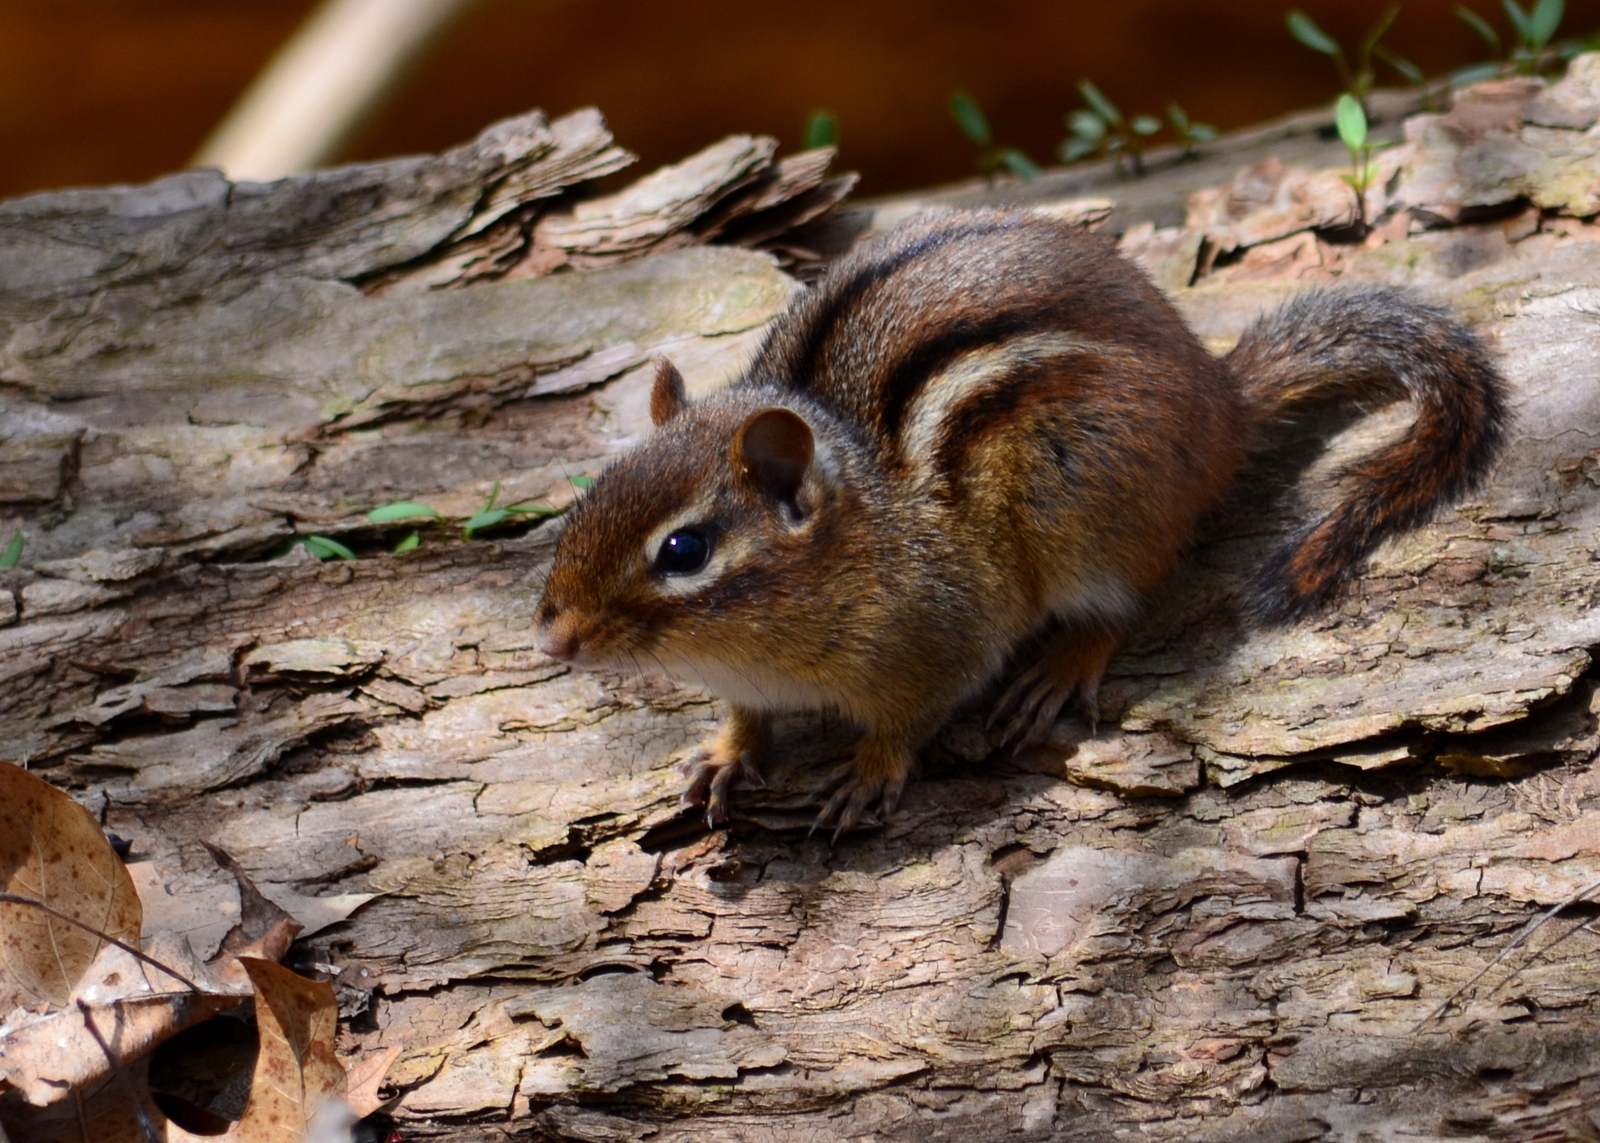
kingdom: Animalia
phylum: Chordata
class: Mammalia
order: Rodentia
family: Sciuridae
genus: Tamias
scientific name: Tamias striatus
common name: Eastern chipmunk
